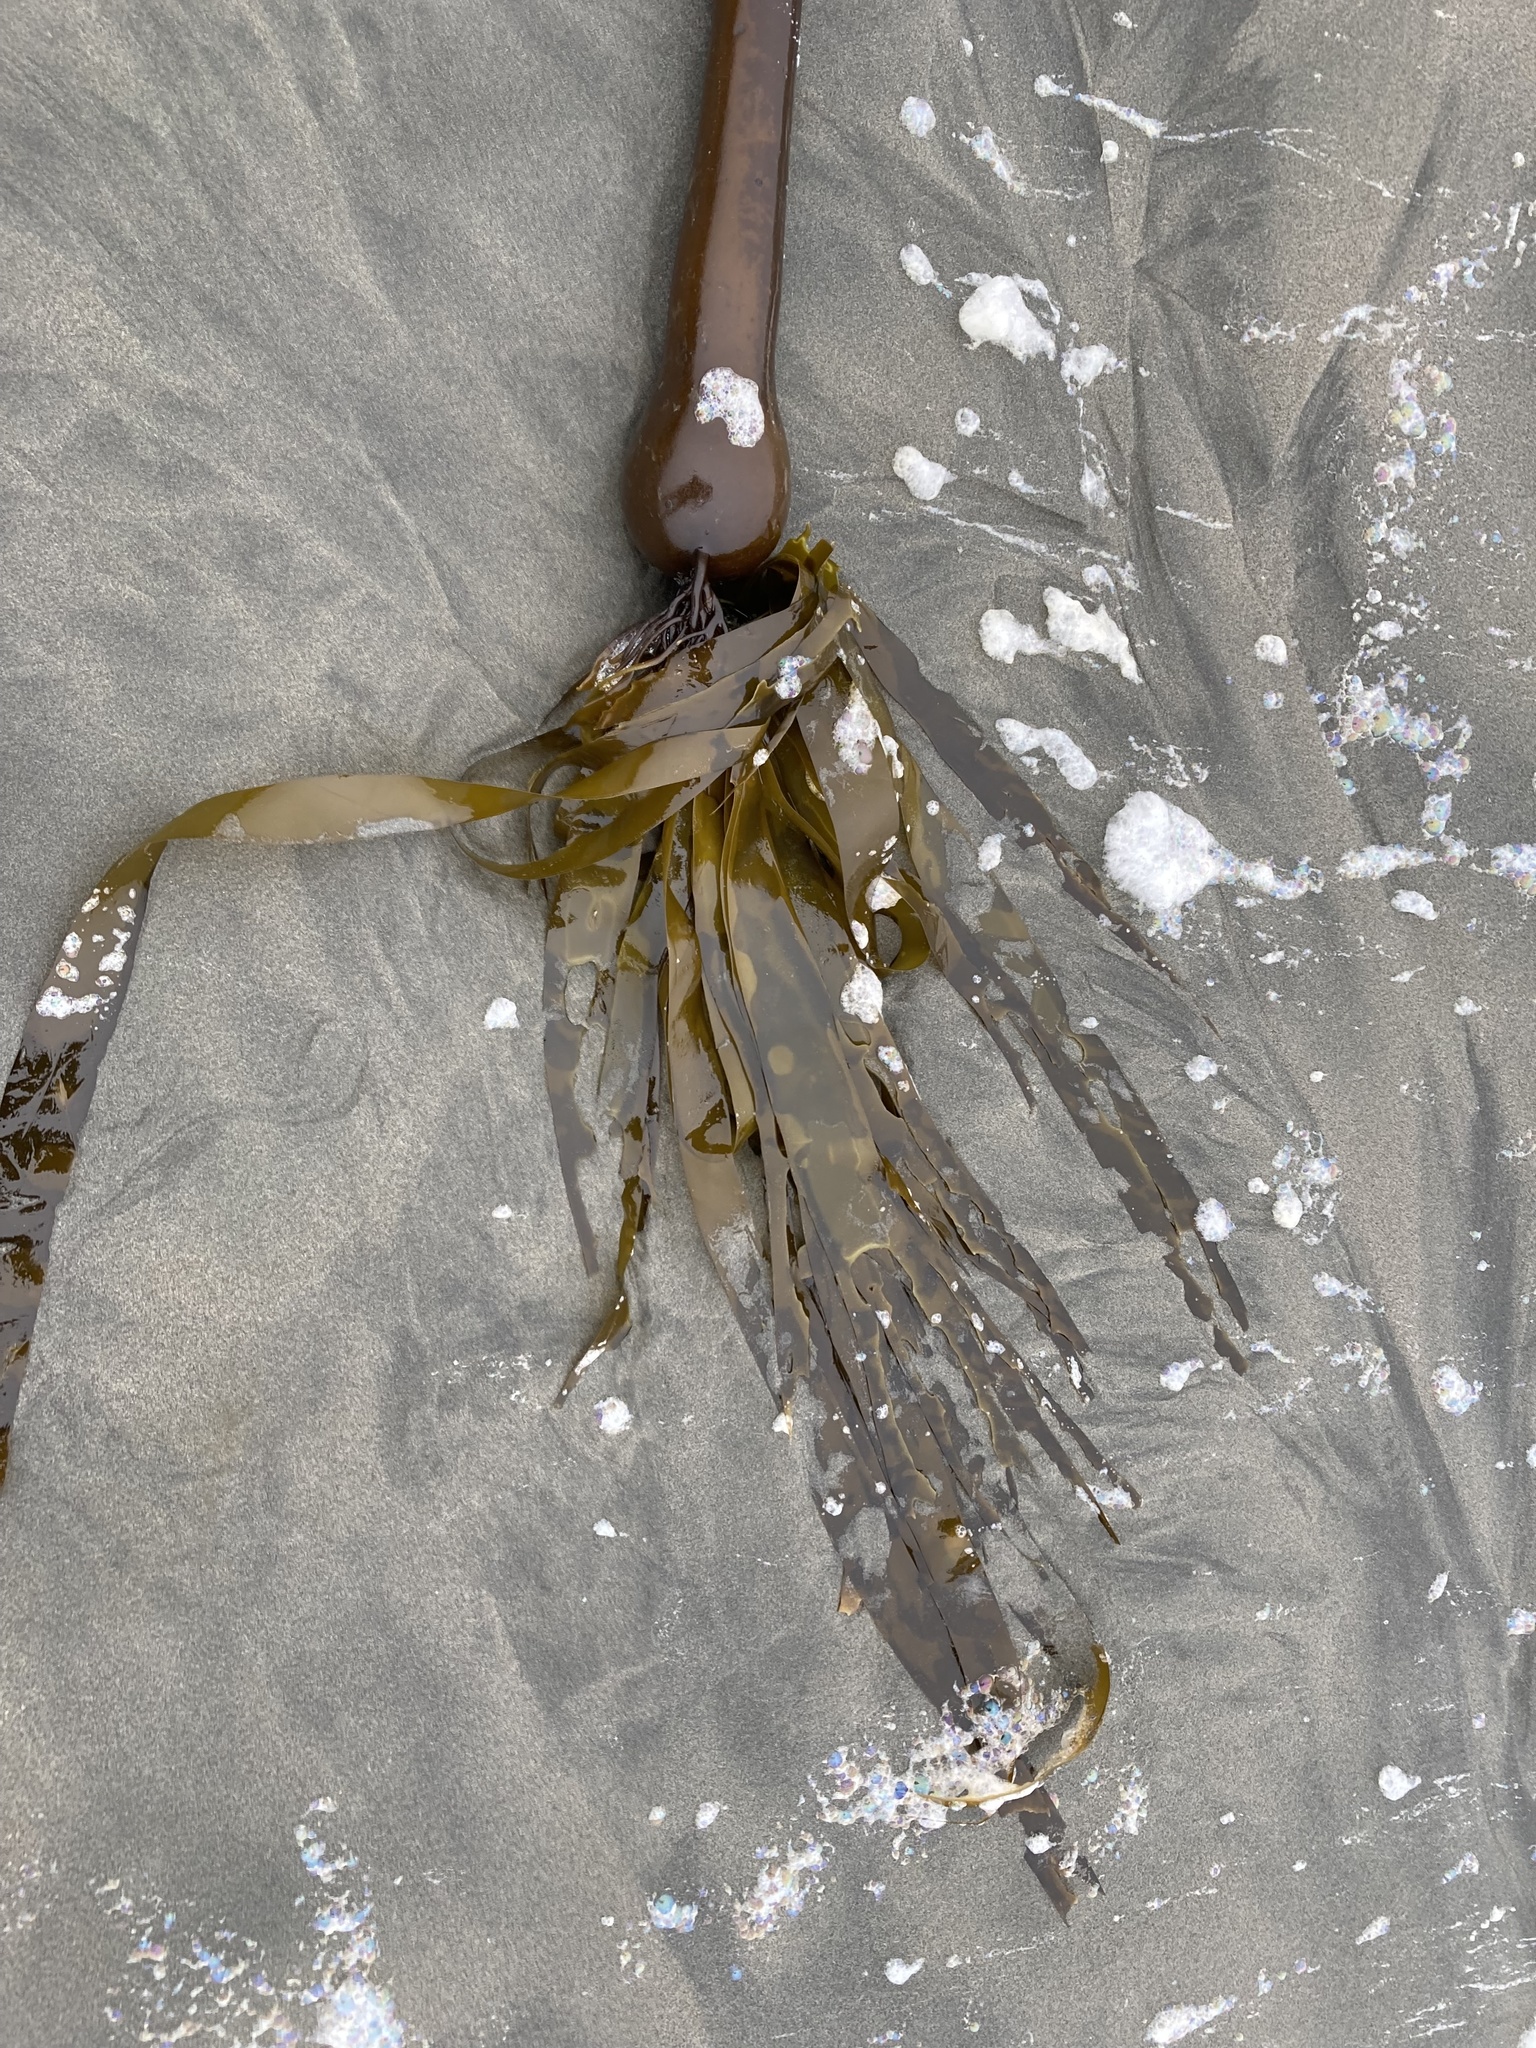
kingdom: Chromista
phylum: Ochrophyta
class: Phaeophyceae
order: Laminariales
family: Laminariaceae
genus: Nereocystis
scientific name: Nereocystis luetkeana
